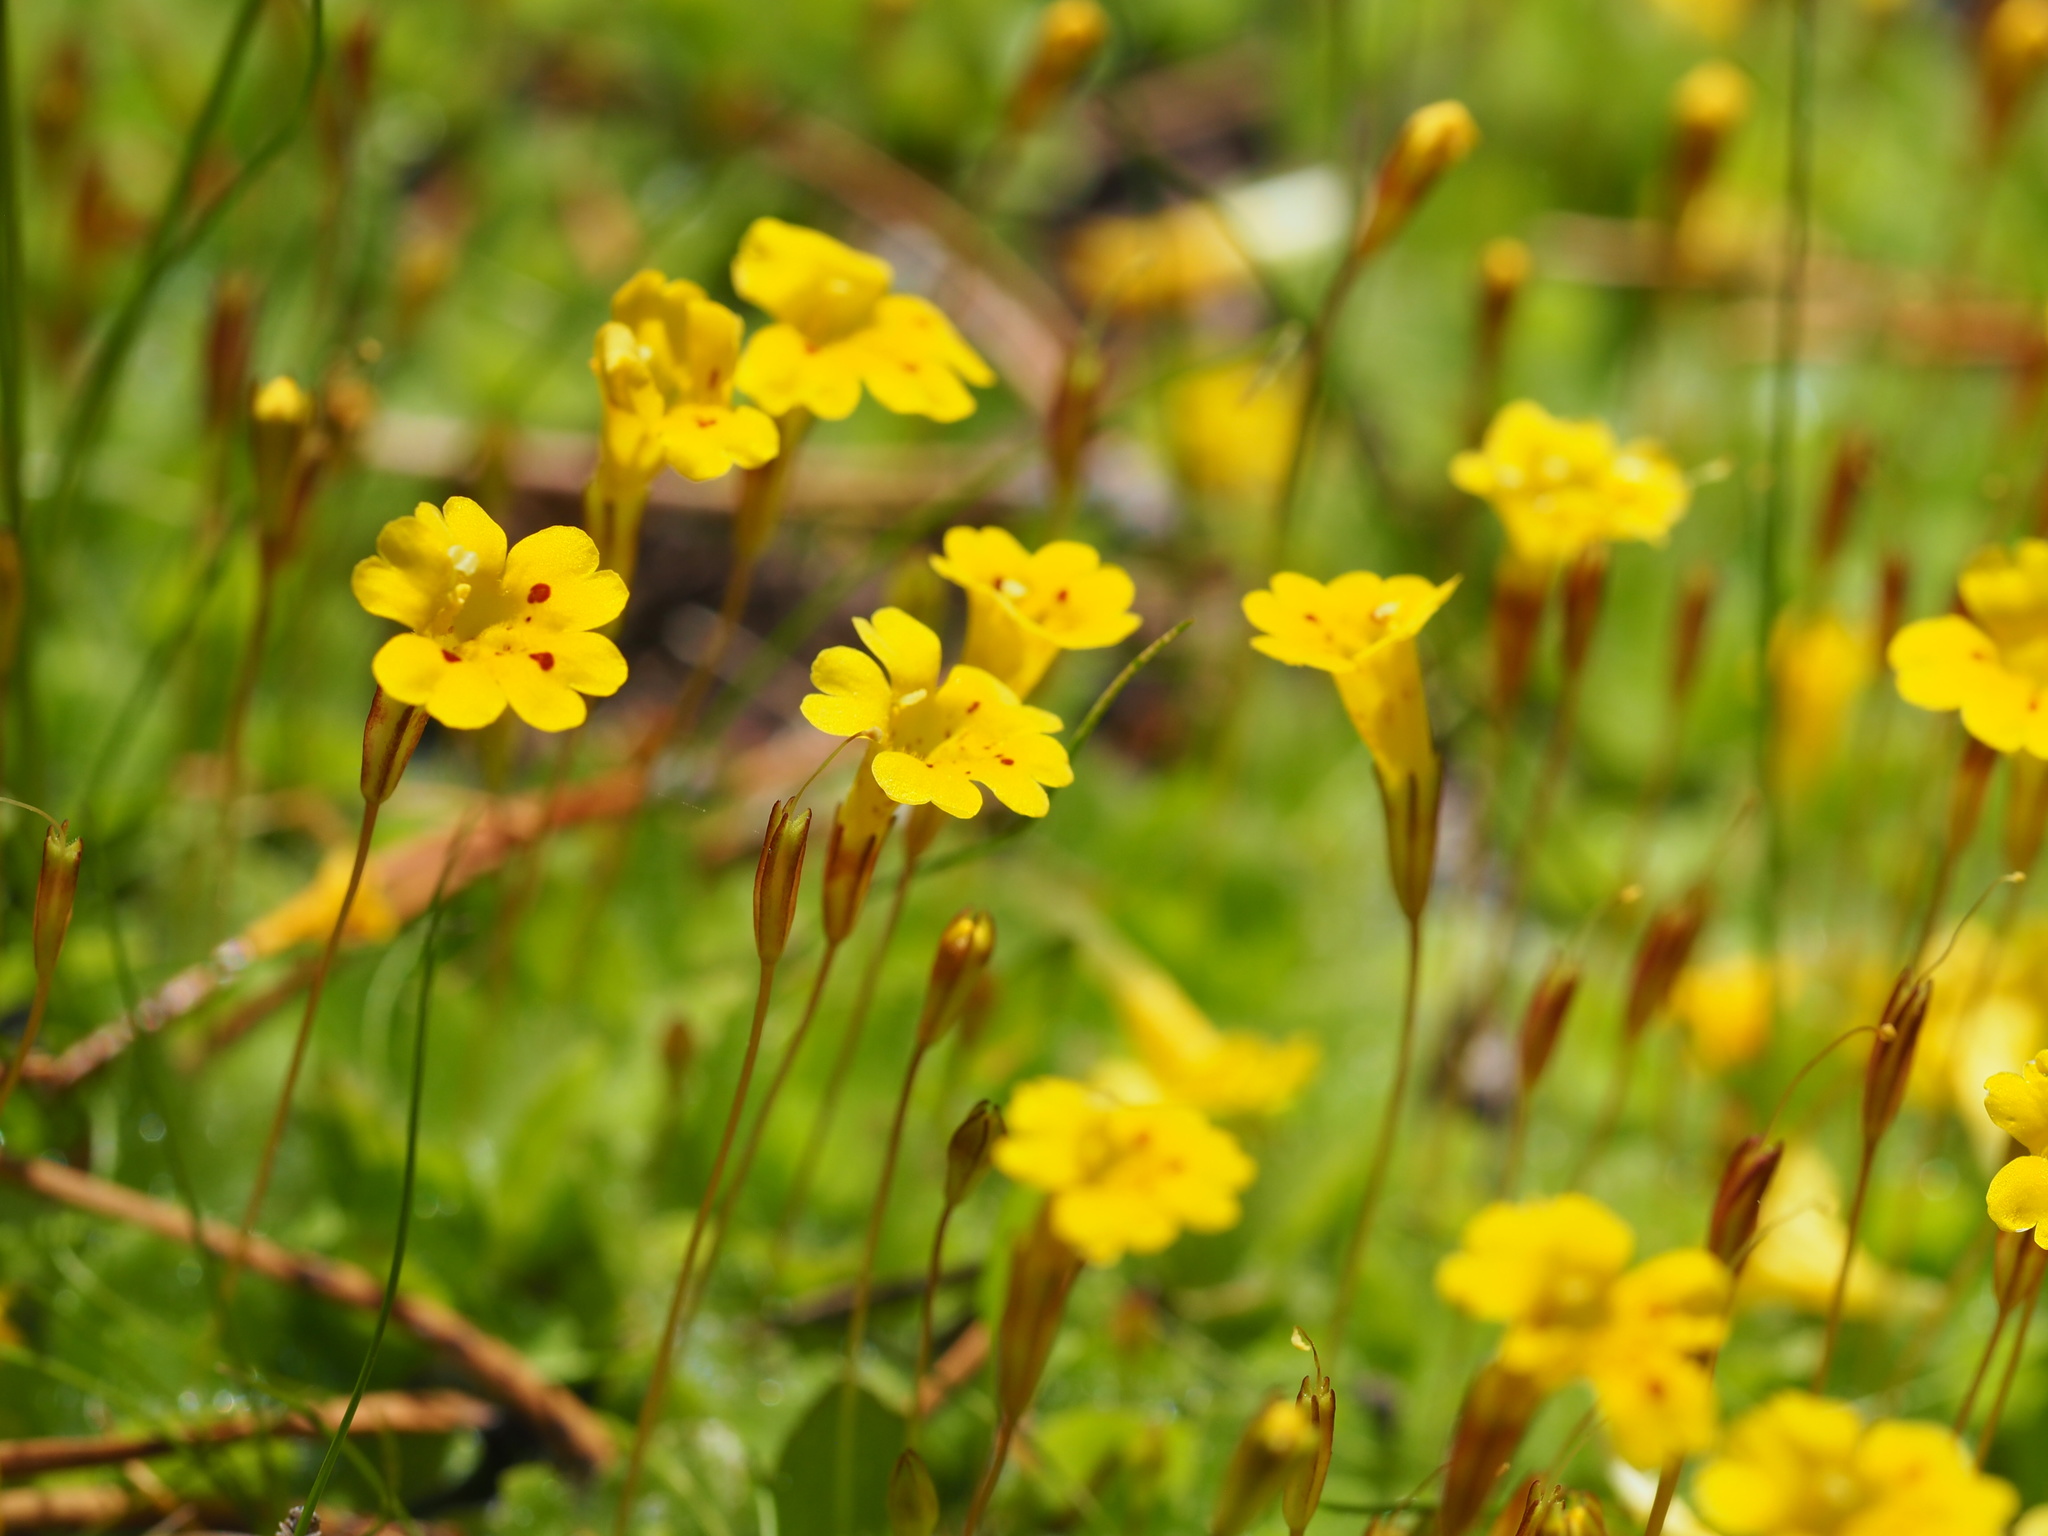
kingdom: Plantae
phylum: Tracheophyta
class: Magnoliopsida
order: Lamiales
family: Phrymaceae
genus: Erythranthe
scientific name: Erythranthe primuloides
